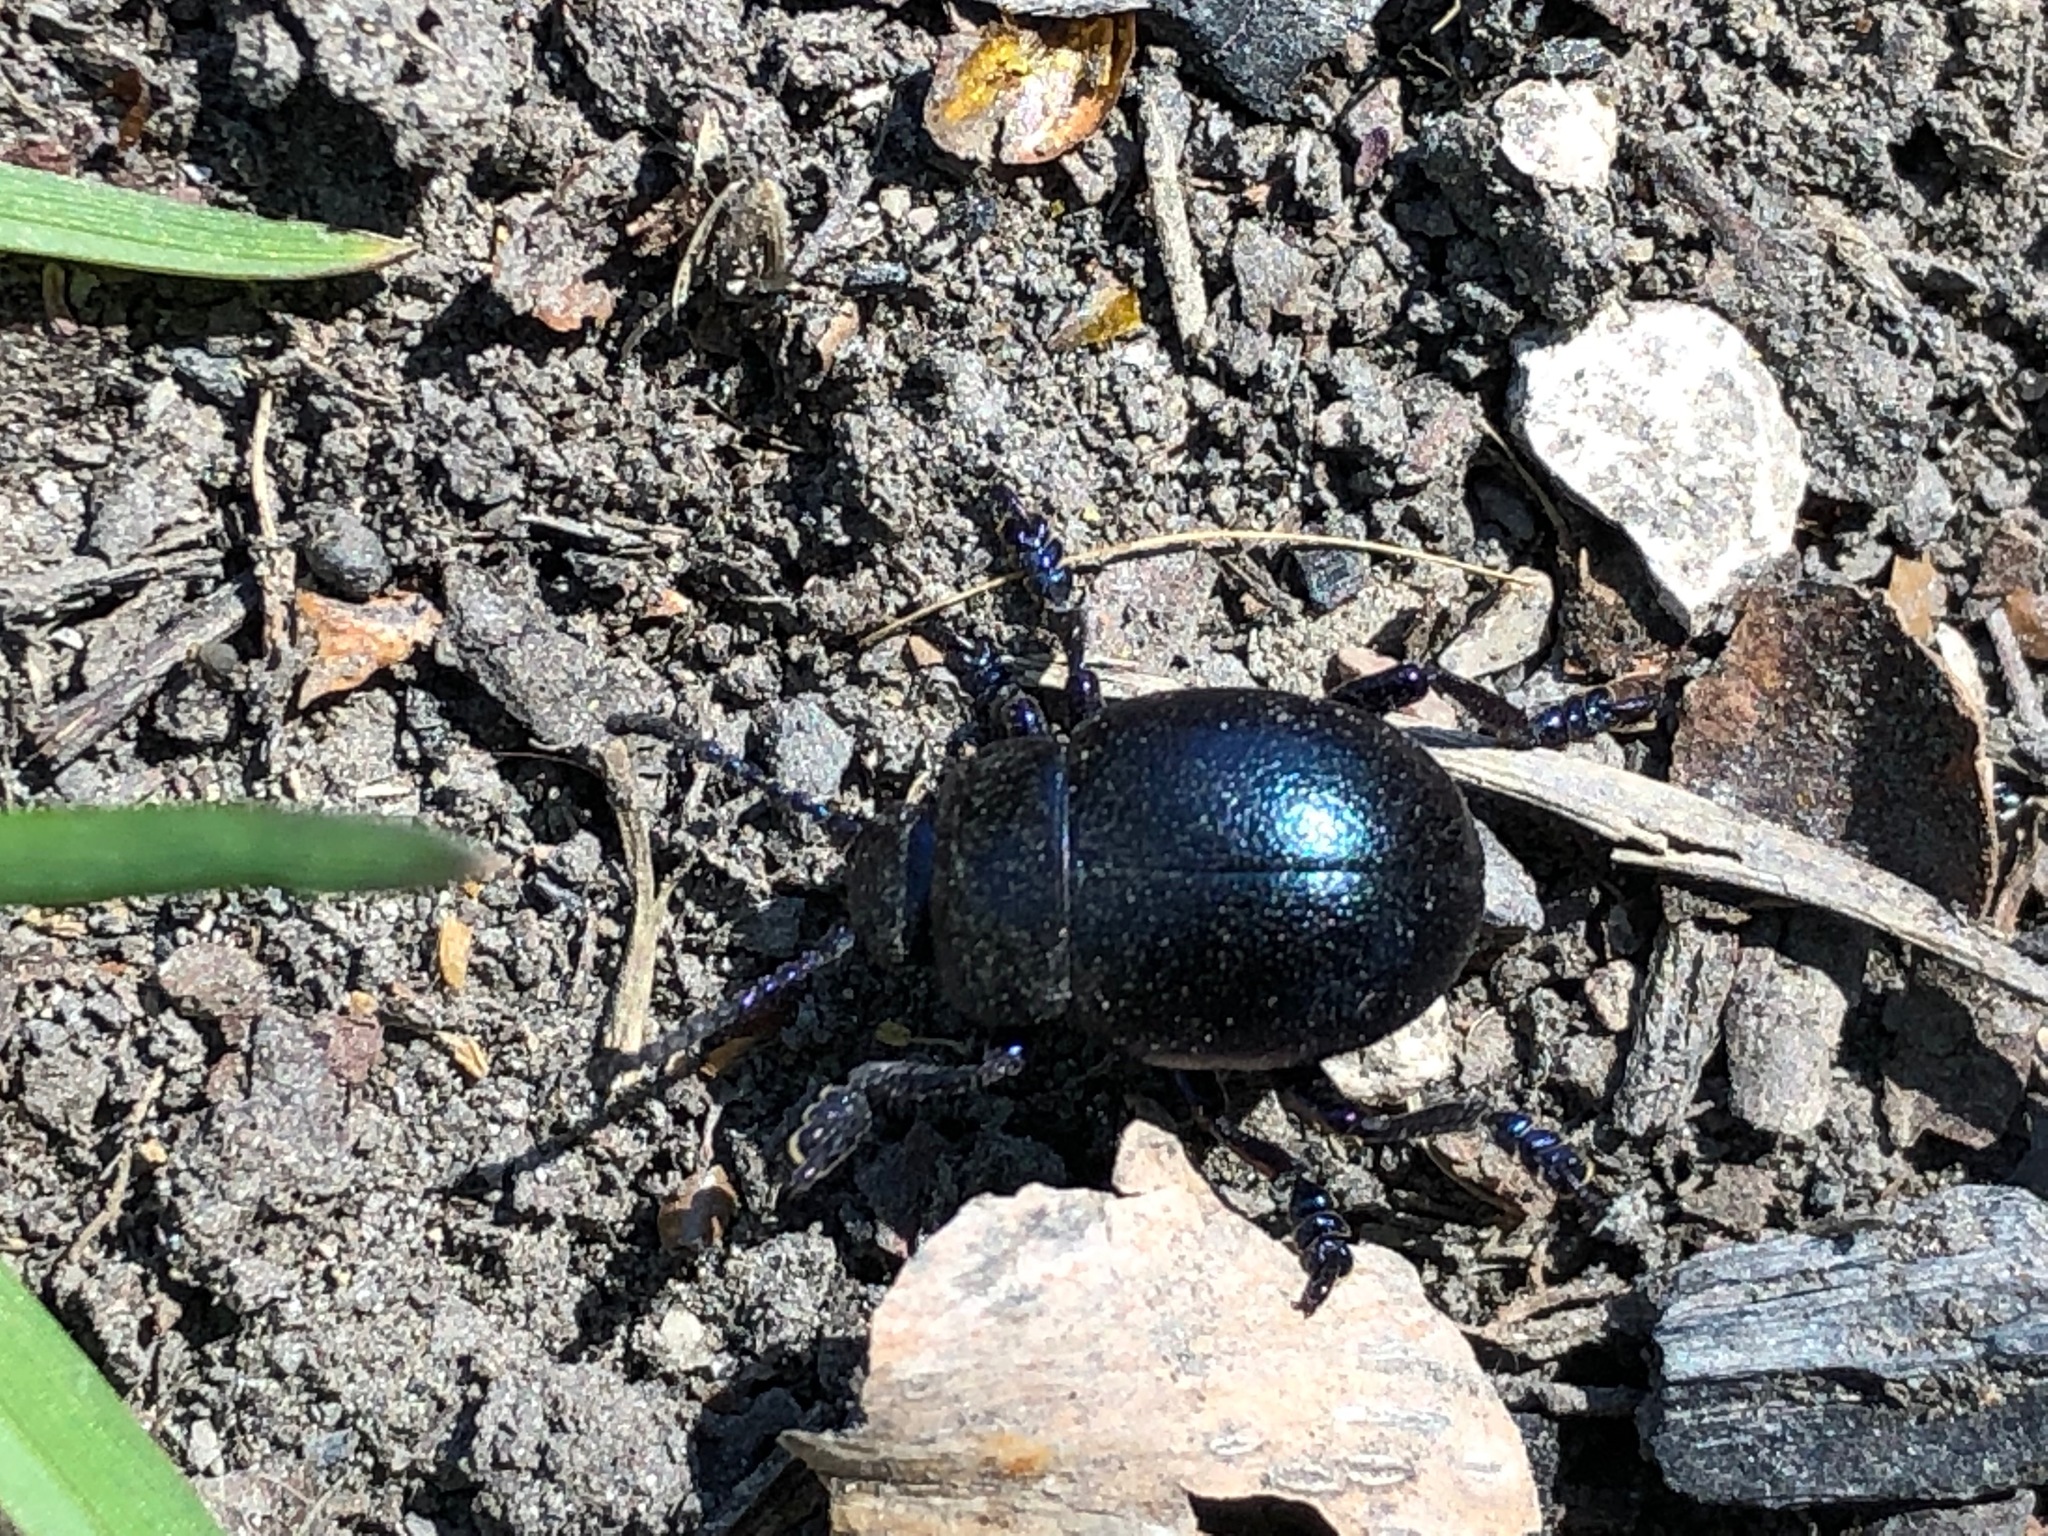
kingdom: Animalia
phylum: Arthropoda
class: Insecta
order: Coleoptera
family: Chrysomelidae
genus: Timarcha
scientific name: Timarcha goettingensis
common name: Small bloody-nosed beetle
